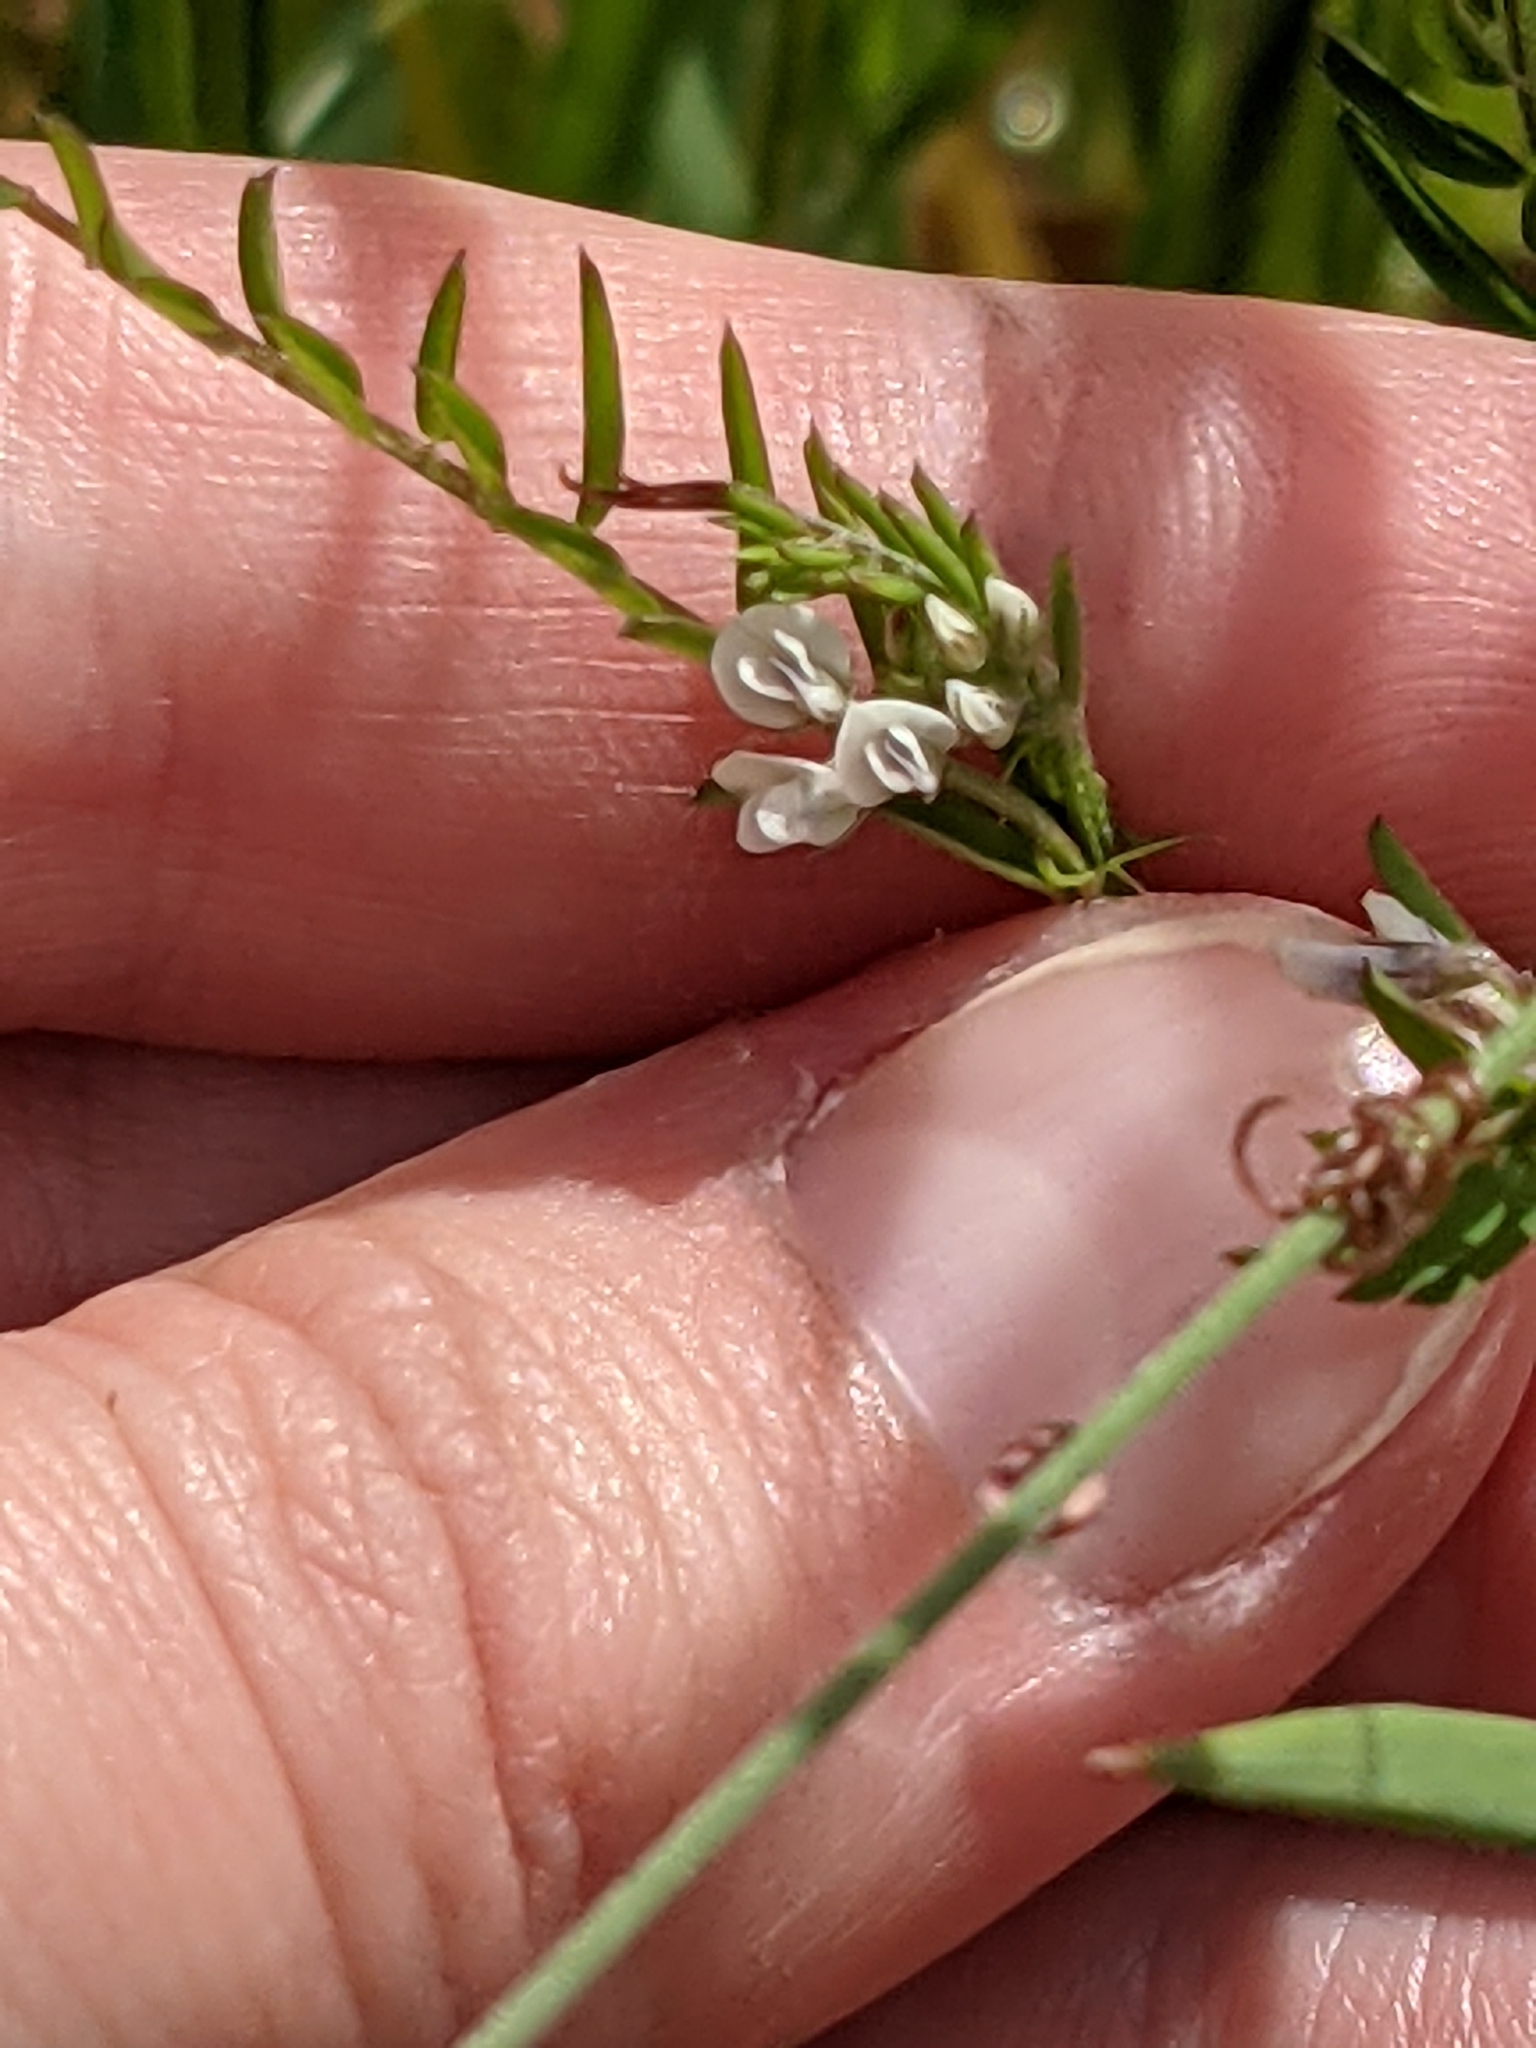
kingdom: Plantae
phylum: Tracheophyta
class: Magnoliopsida
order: Fabales
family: Fabaceae
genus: Vicia
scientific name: Vicia hirsuta
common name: Tiny vetch
